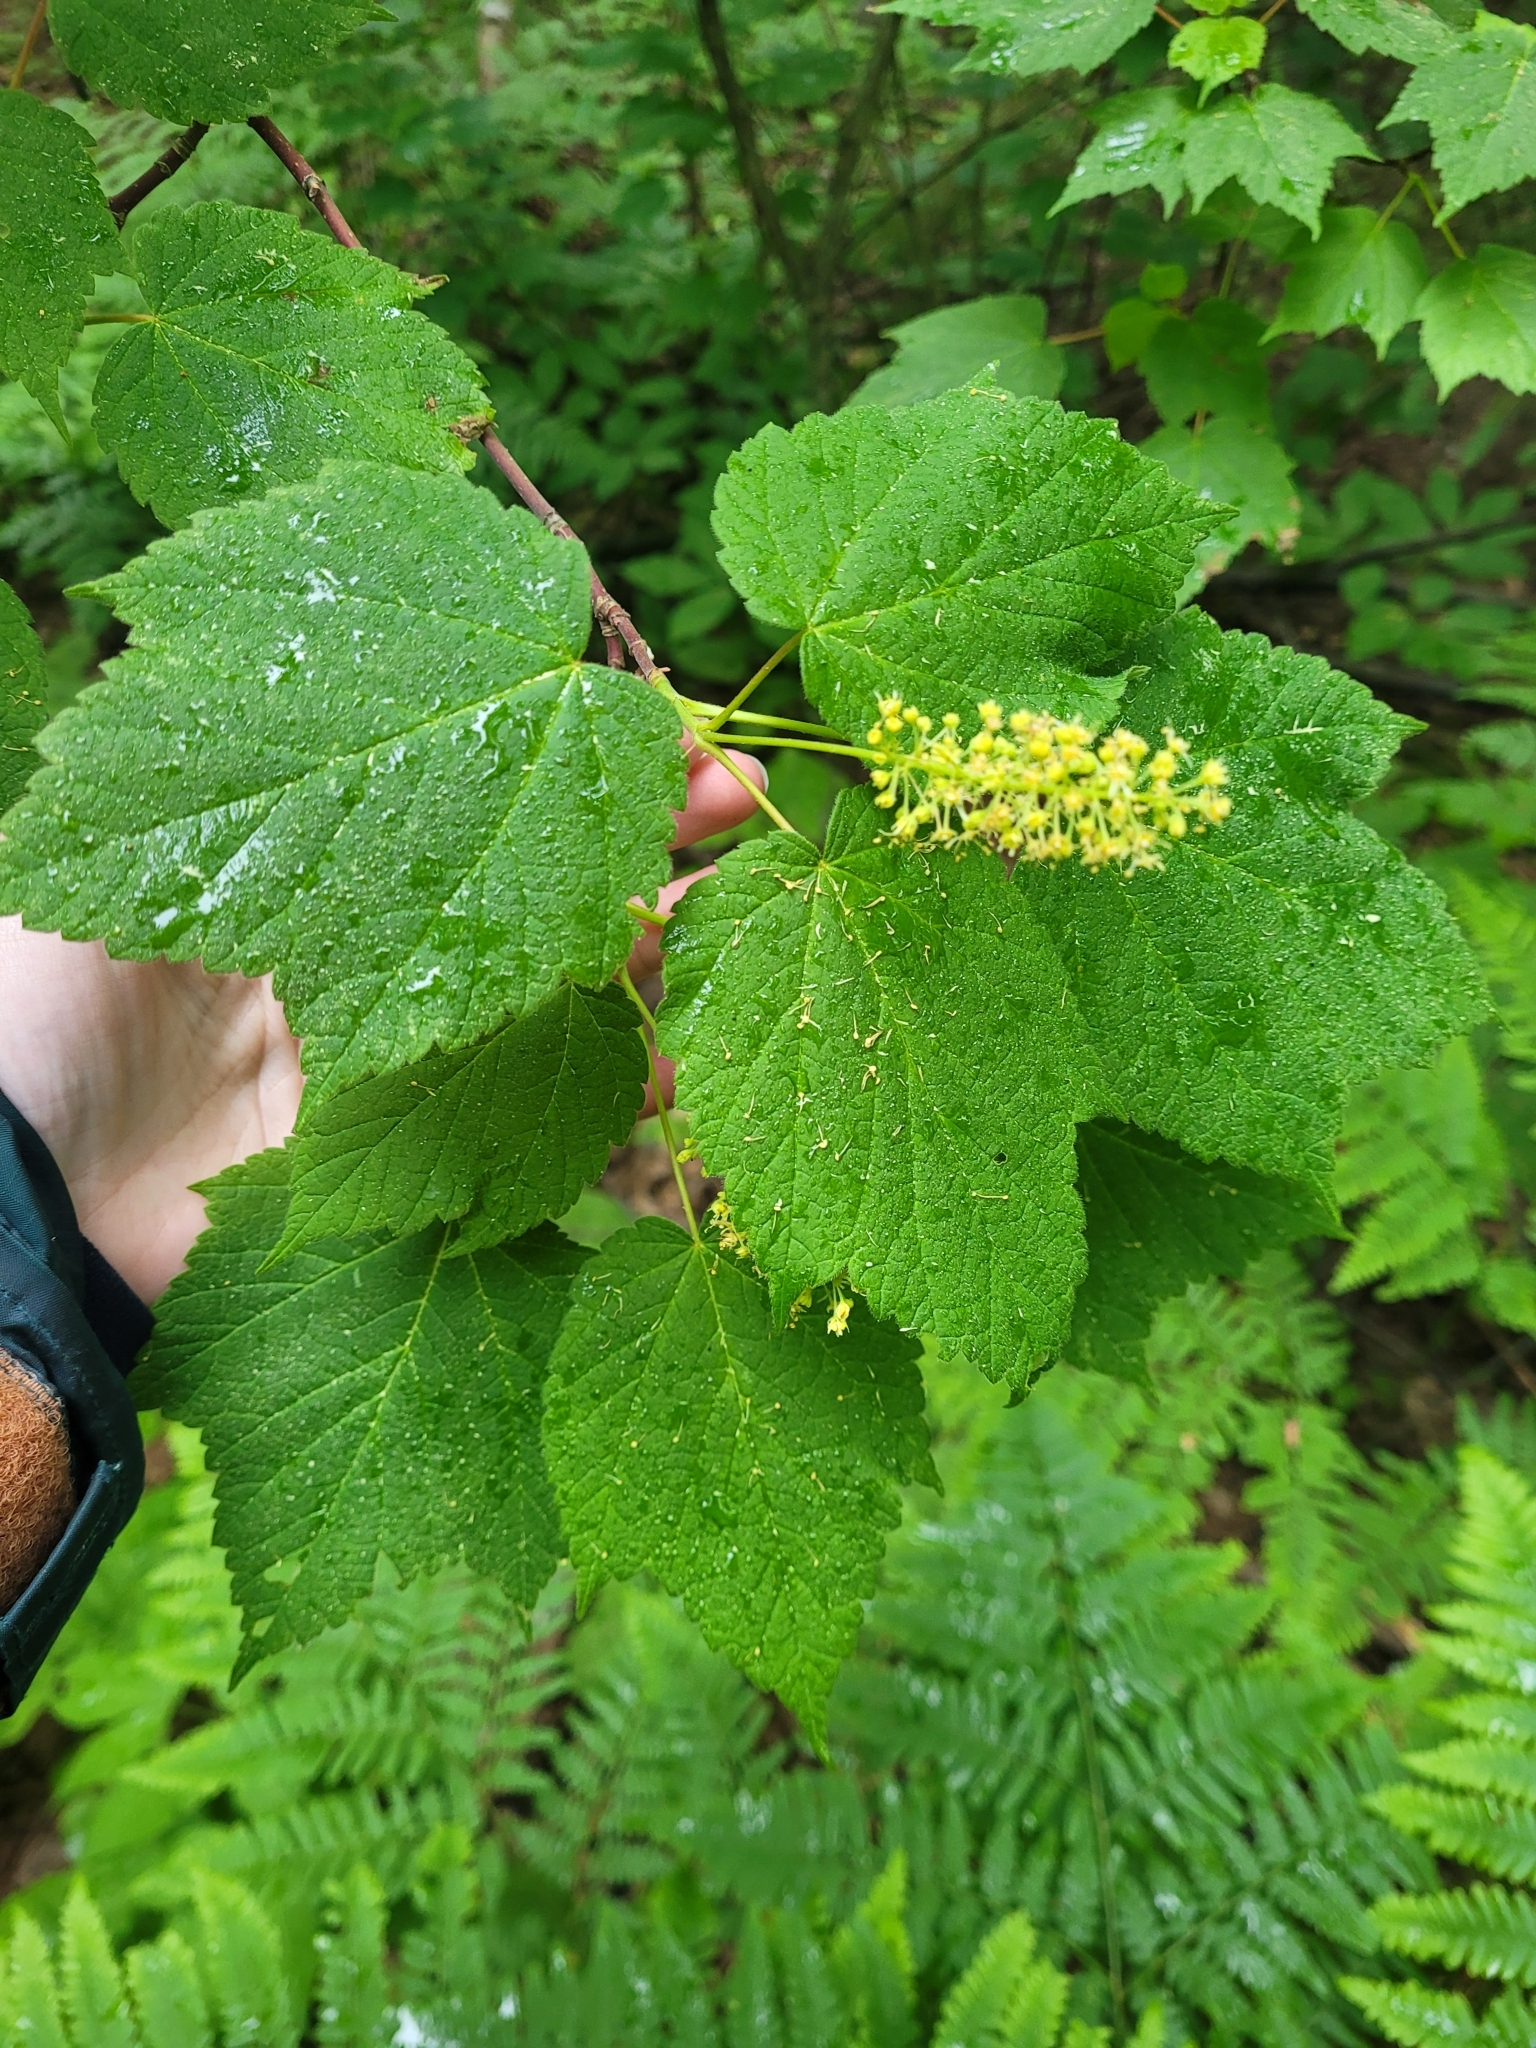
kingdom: Plantae
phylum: Tracheophyta
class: Magnoliopsida
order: Sapindales
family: Sapindaceae
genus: Acer
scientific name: Acer spicatum
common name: Mountain maple
